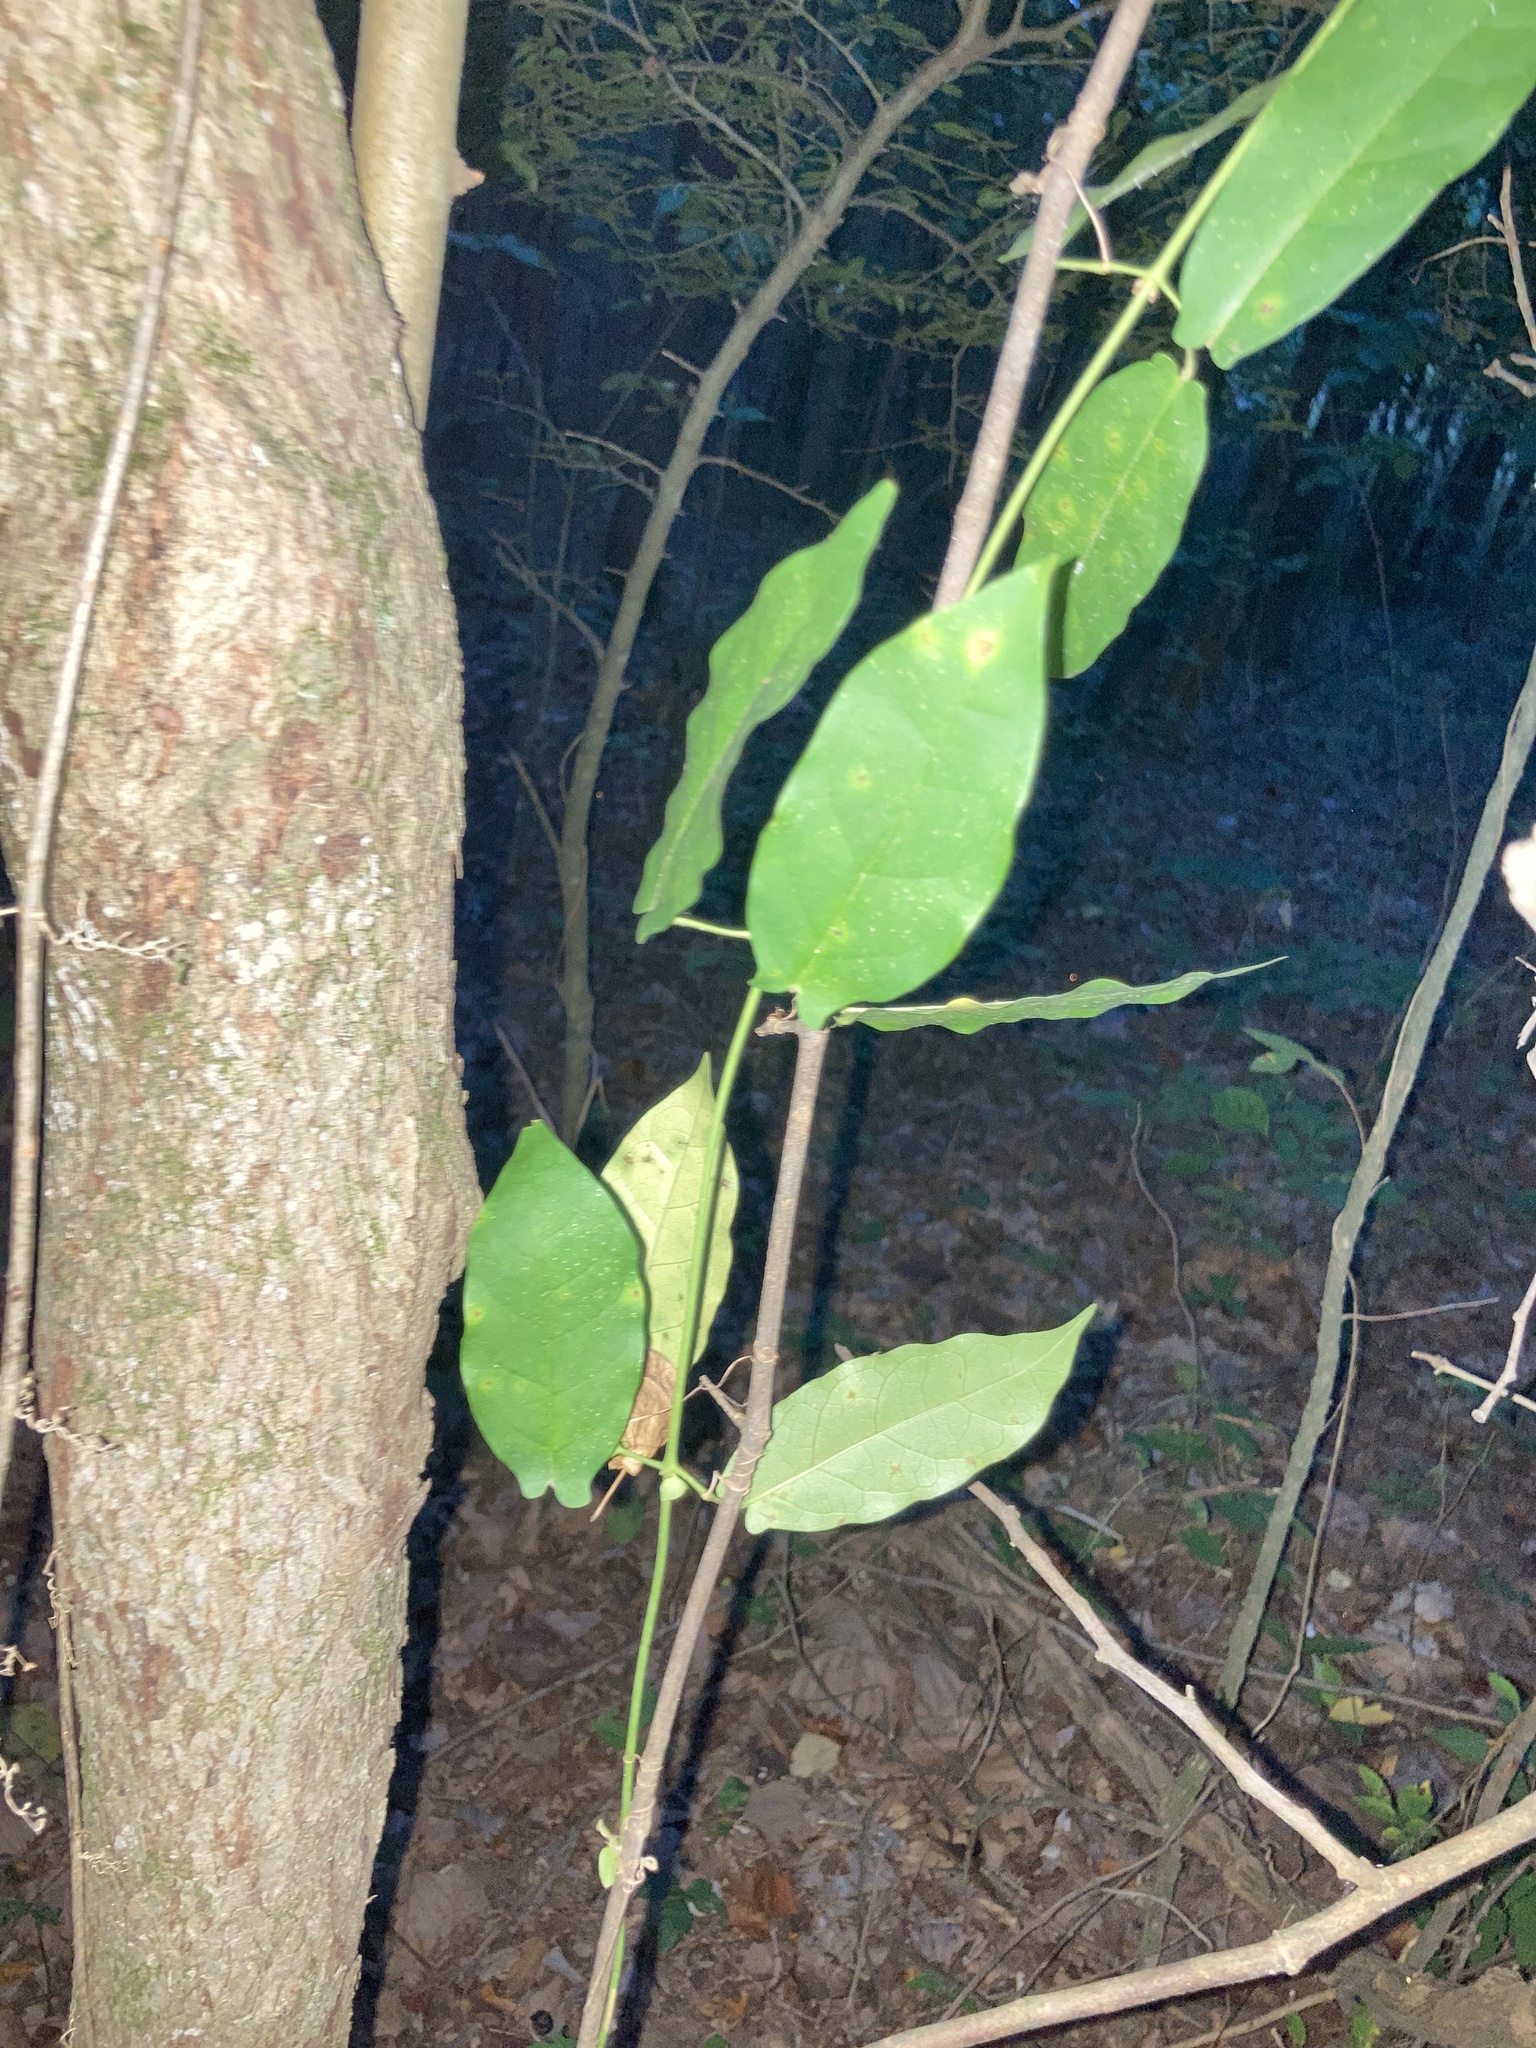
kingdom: Plantae
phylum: Tracheophyta
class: Magnoliopsida
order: Lamiales
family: Bignoniaceae
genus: Bignonia
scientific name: Bignonia capreolata
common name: Crossvine
